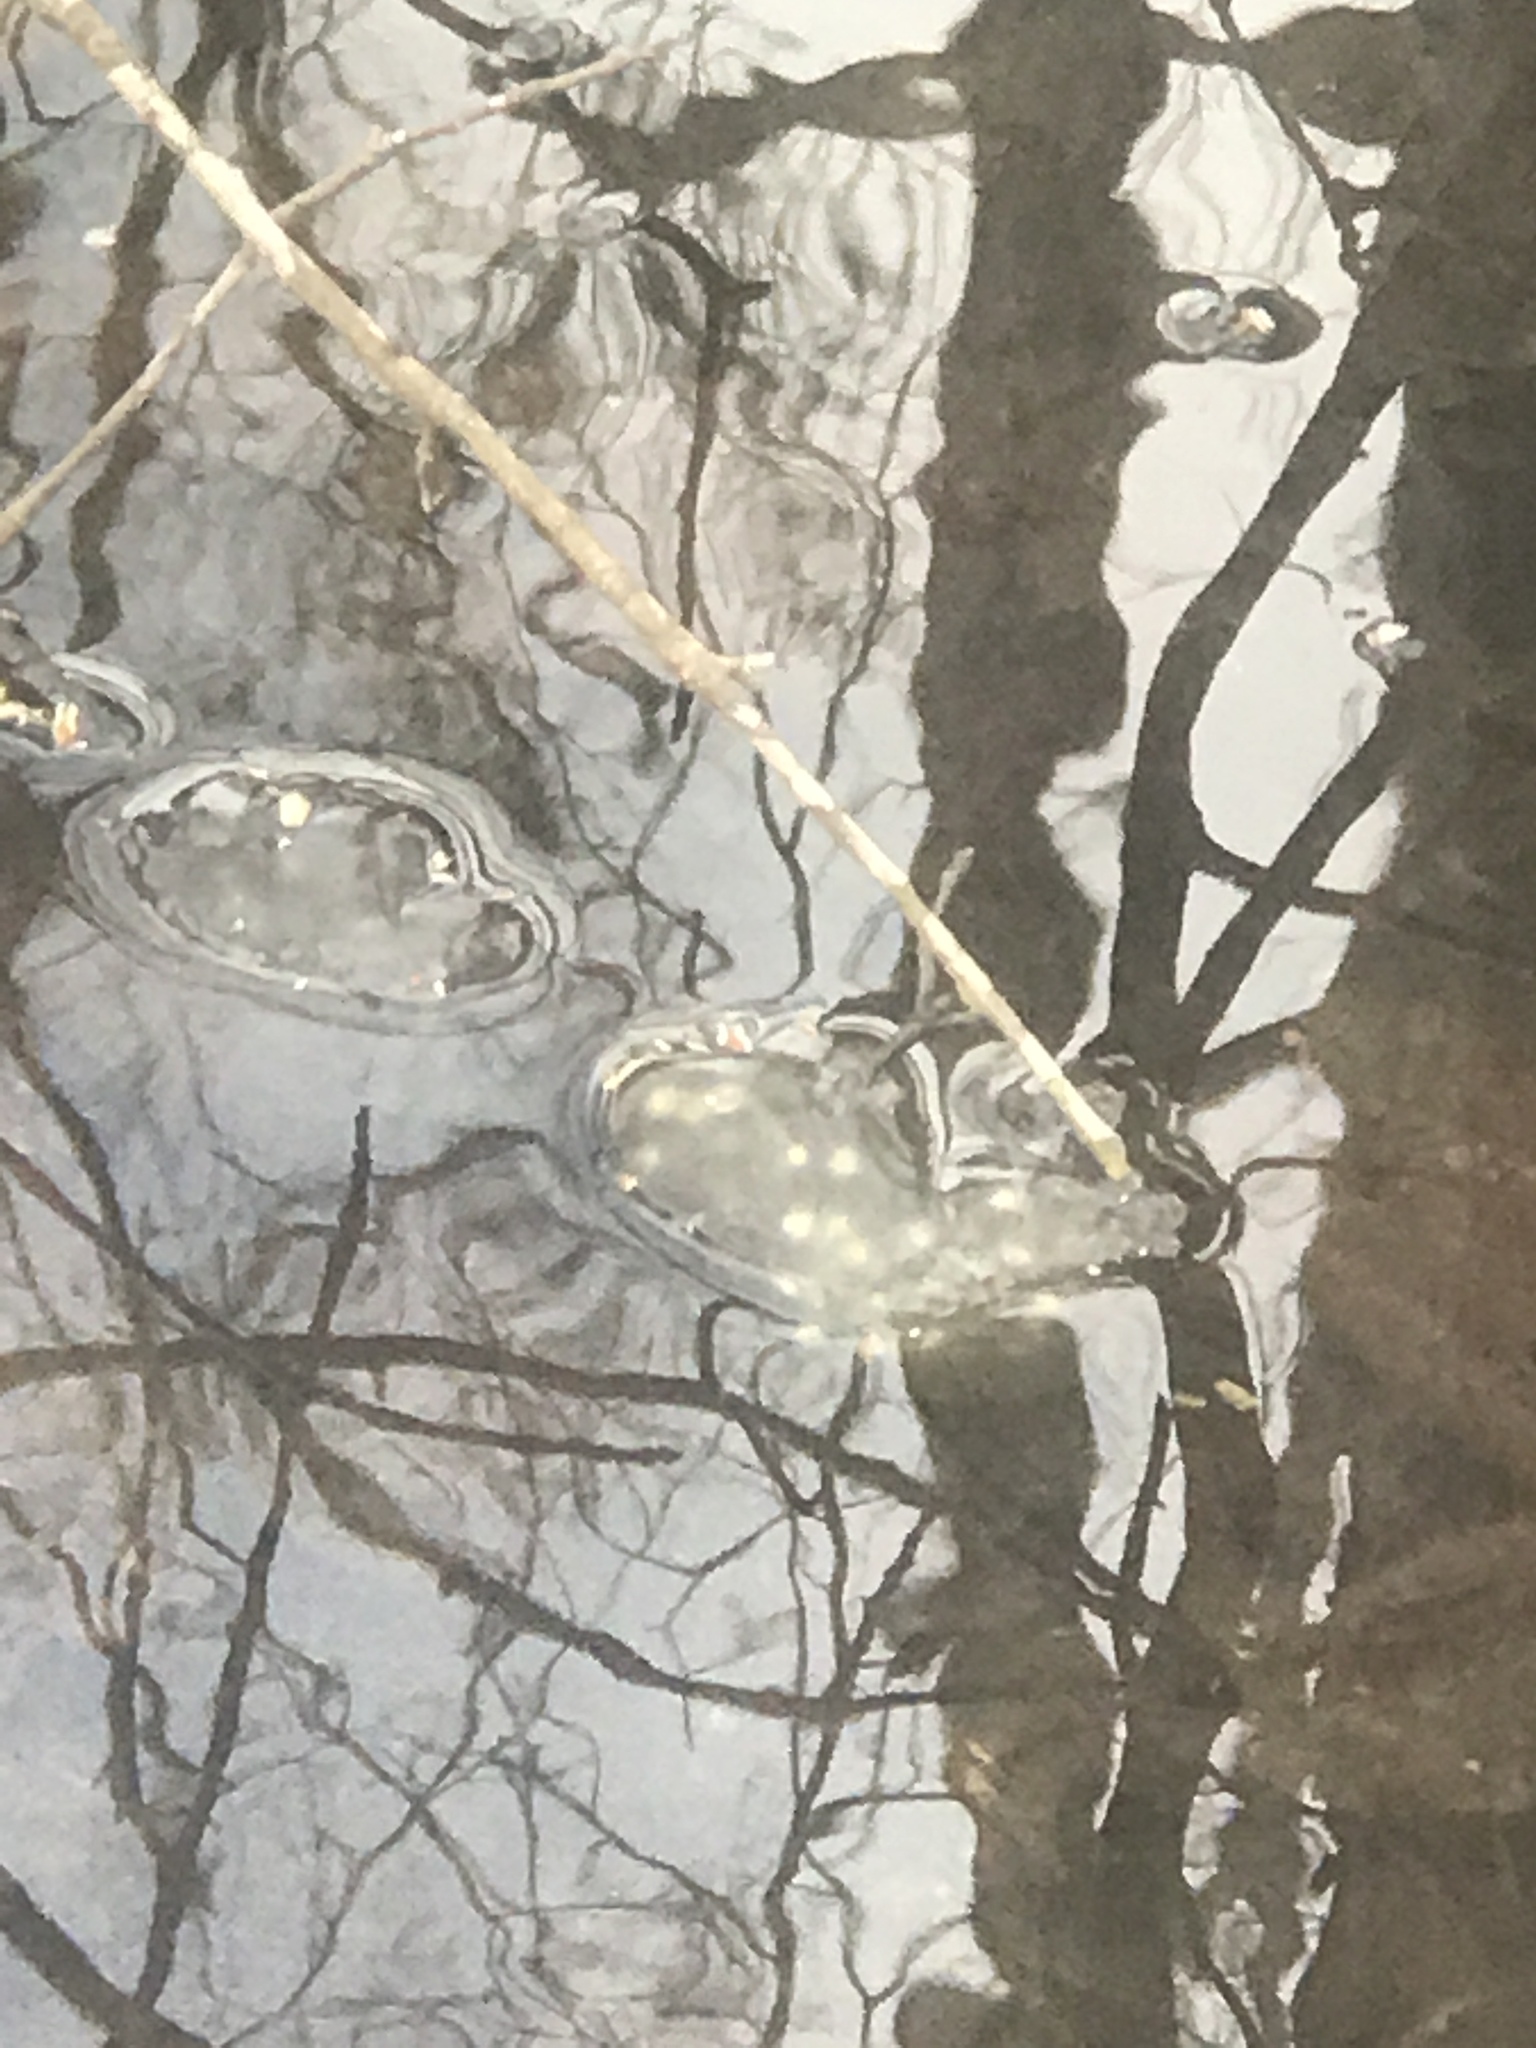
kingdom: Animalia
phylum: Chordata
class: Amphibia
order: Caudata
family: Ambystomatidae
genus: Ambystoma
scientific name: Ambystoma maculatum
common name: Spotted salamander
